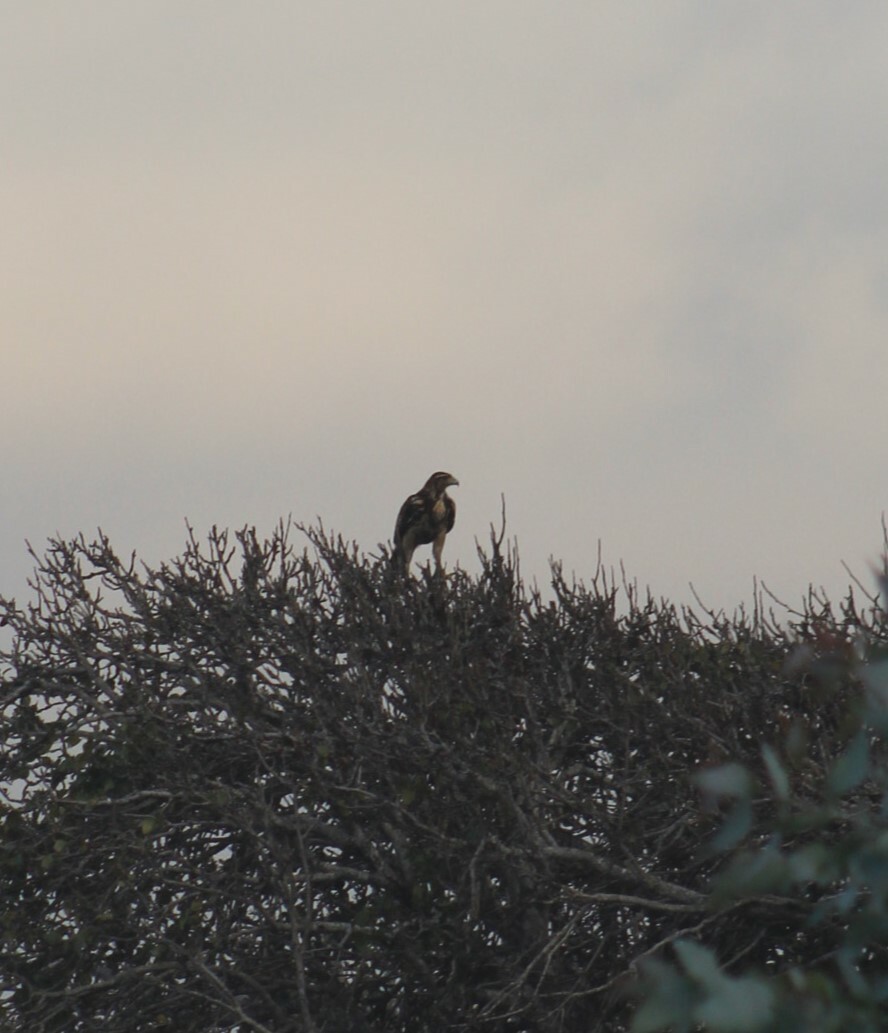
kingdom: Animalia
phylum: Chordata
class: Aves
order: Accipitriformes
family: Accipitridae
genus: Parabuteo
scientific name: Parabuteo unicinctus
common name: Harris's hawk
